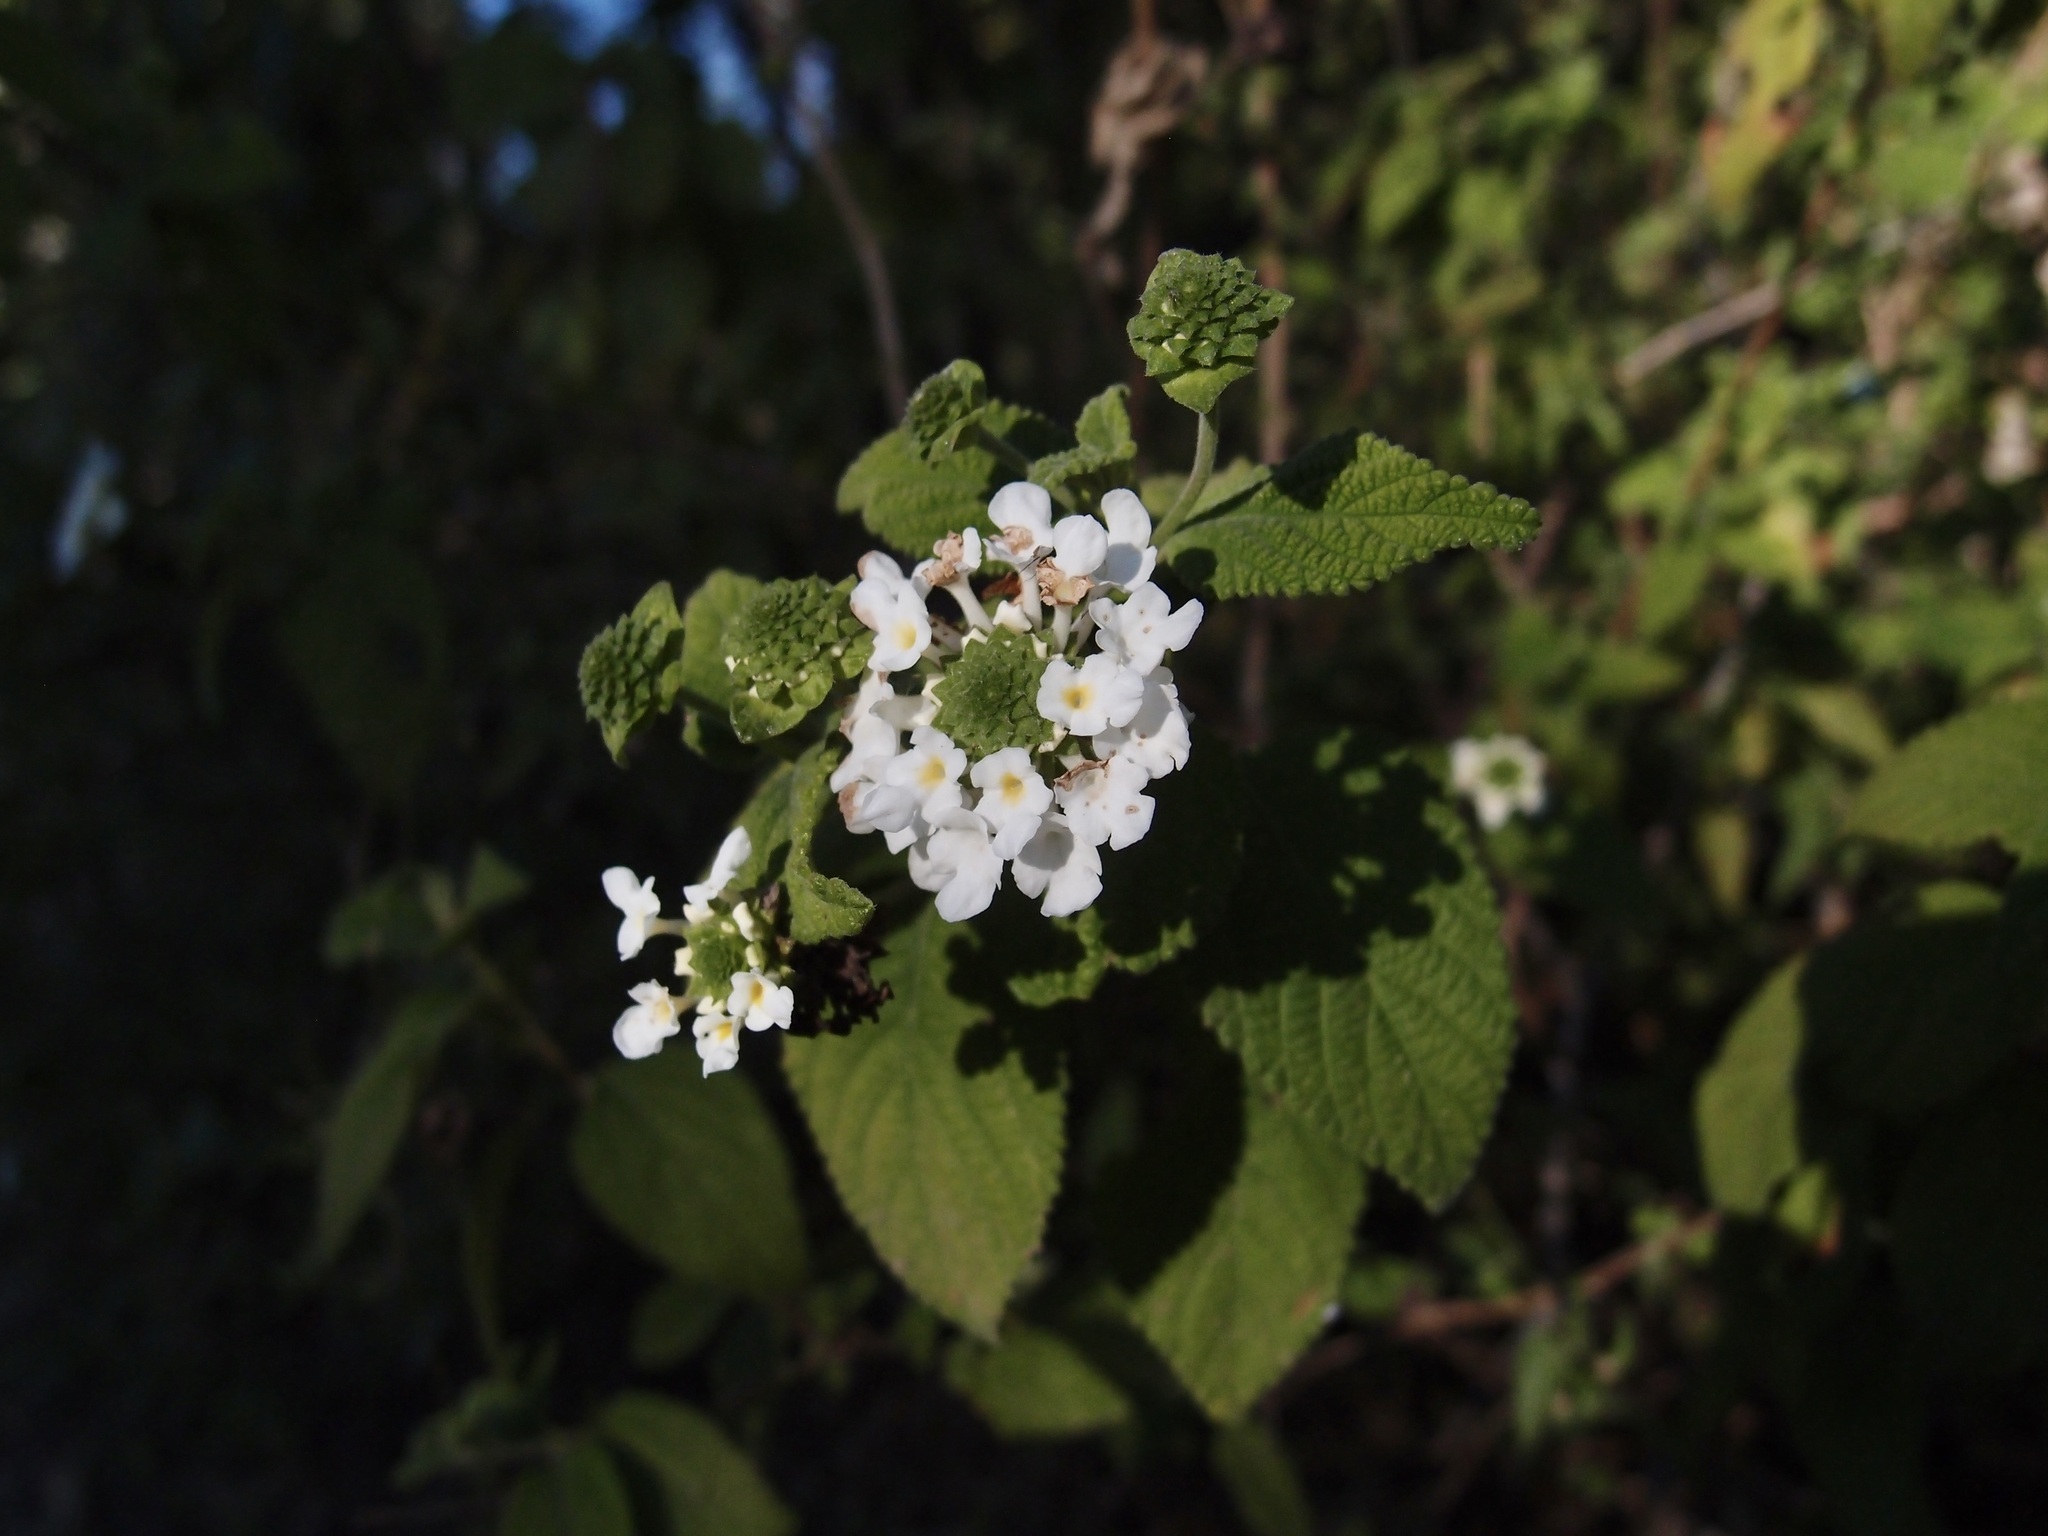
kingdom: Plantae
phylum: Tracheophyta
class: Magnoliopsida
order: Lamiales
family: Verbenaceae
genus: Lantana
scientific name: Lantana velutina
